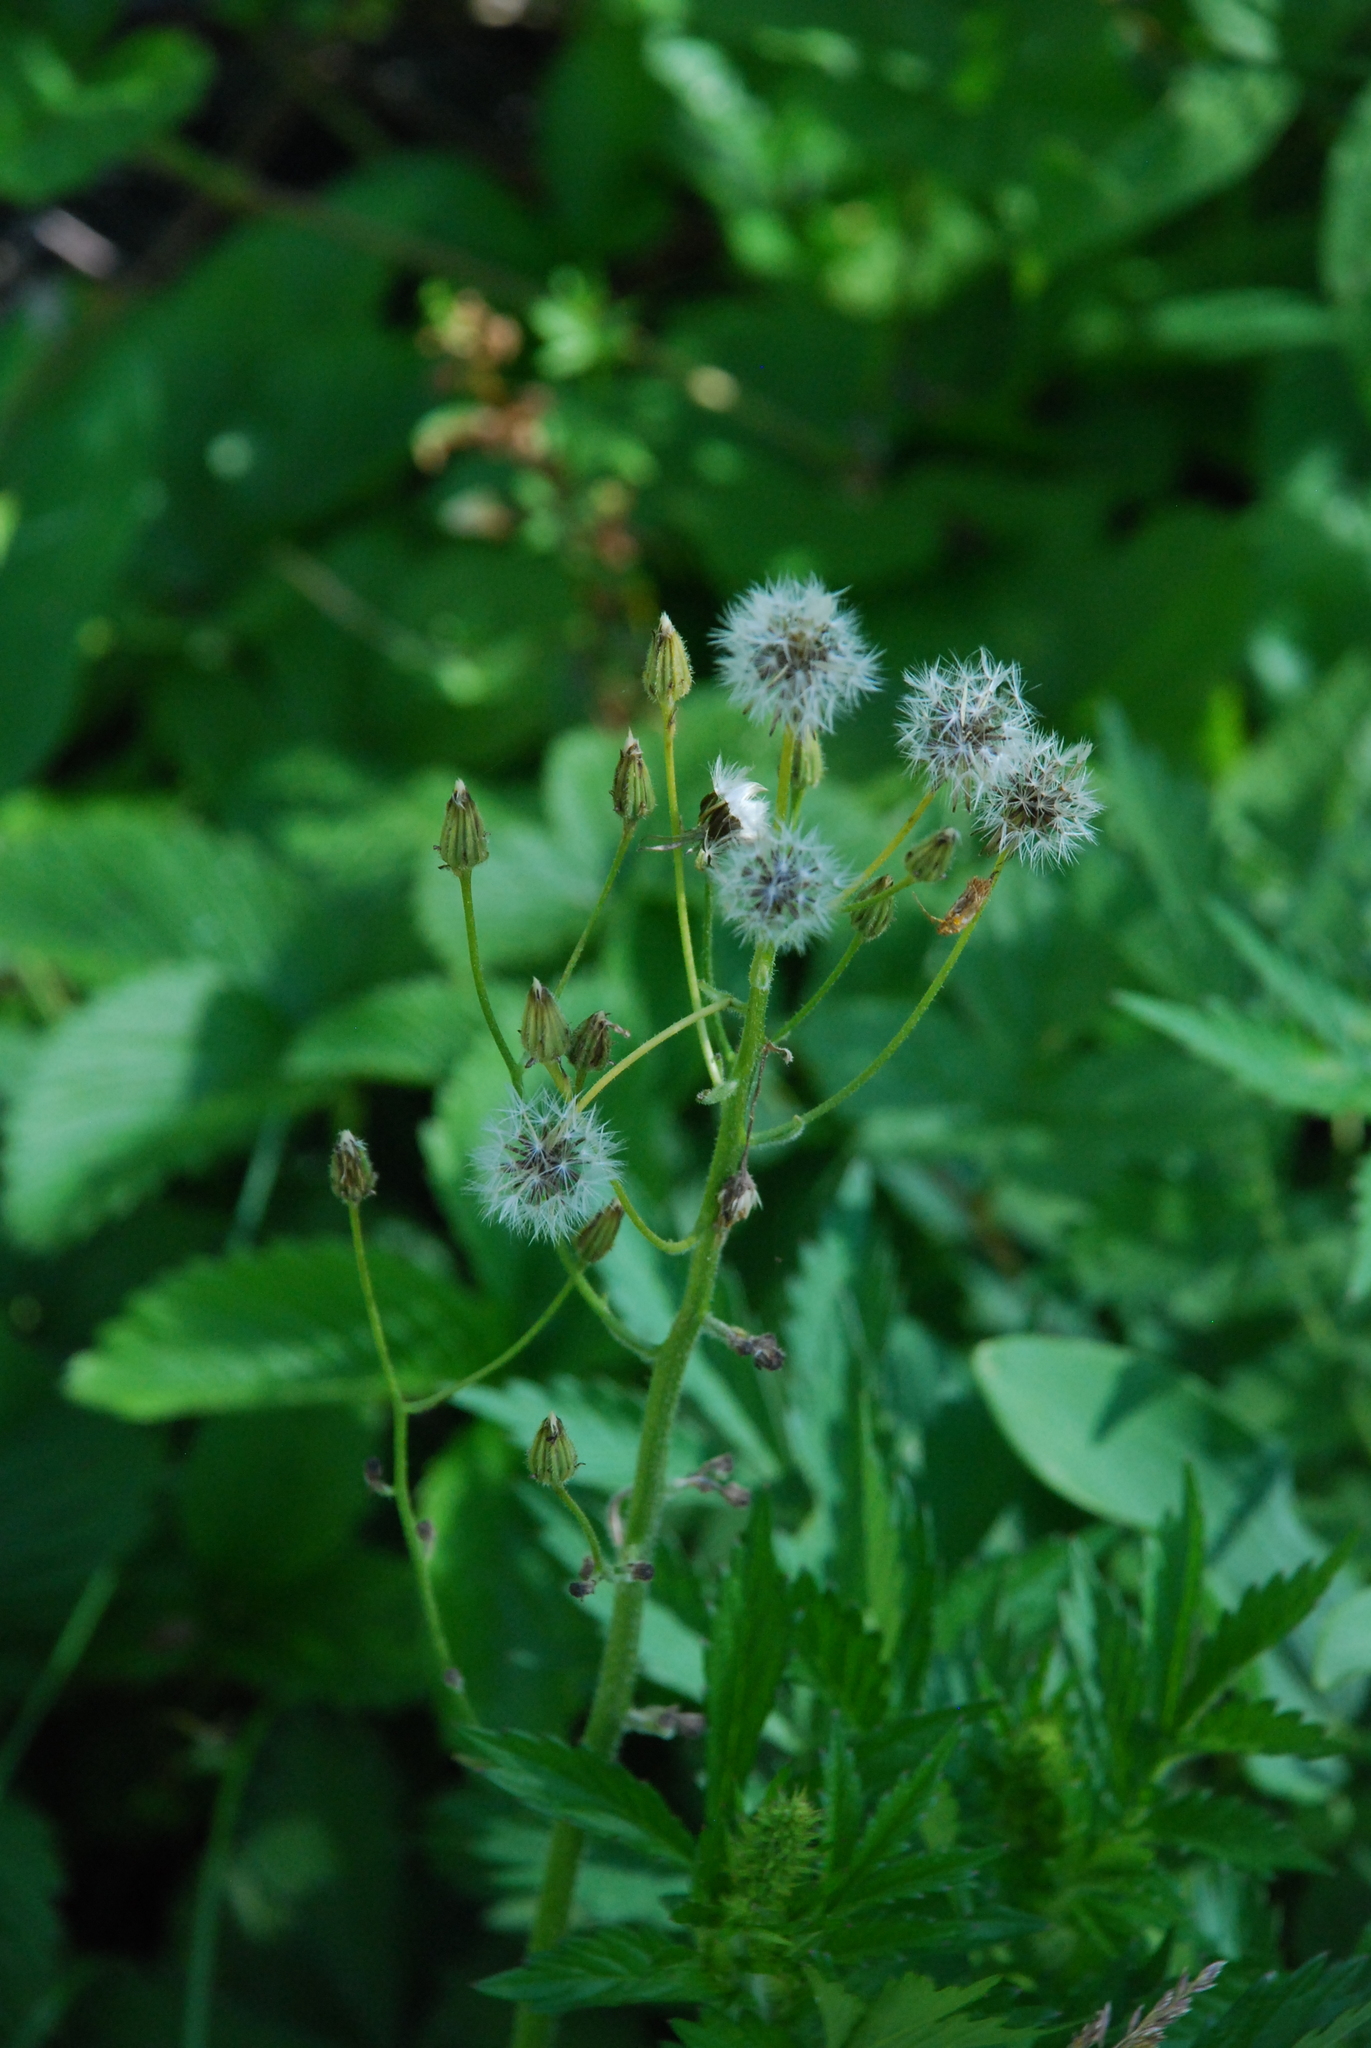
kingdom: Plantae
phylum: Tracheophyta
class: Magnoliopsida
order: Asterales
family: Asteraceae
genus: Lactuca
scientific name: Lactuca macrophylla
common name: Common blue-sow-thistle
